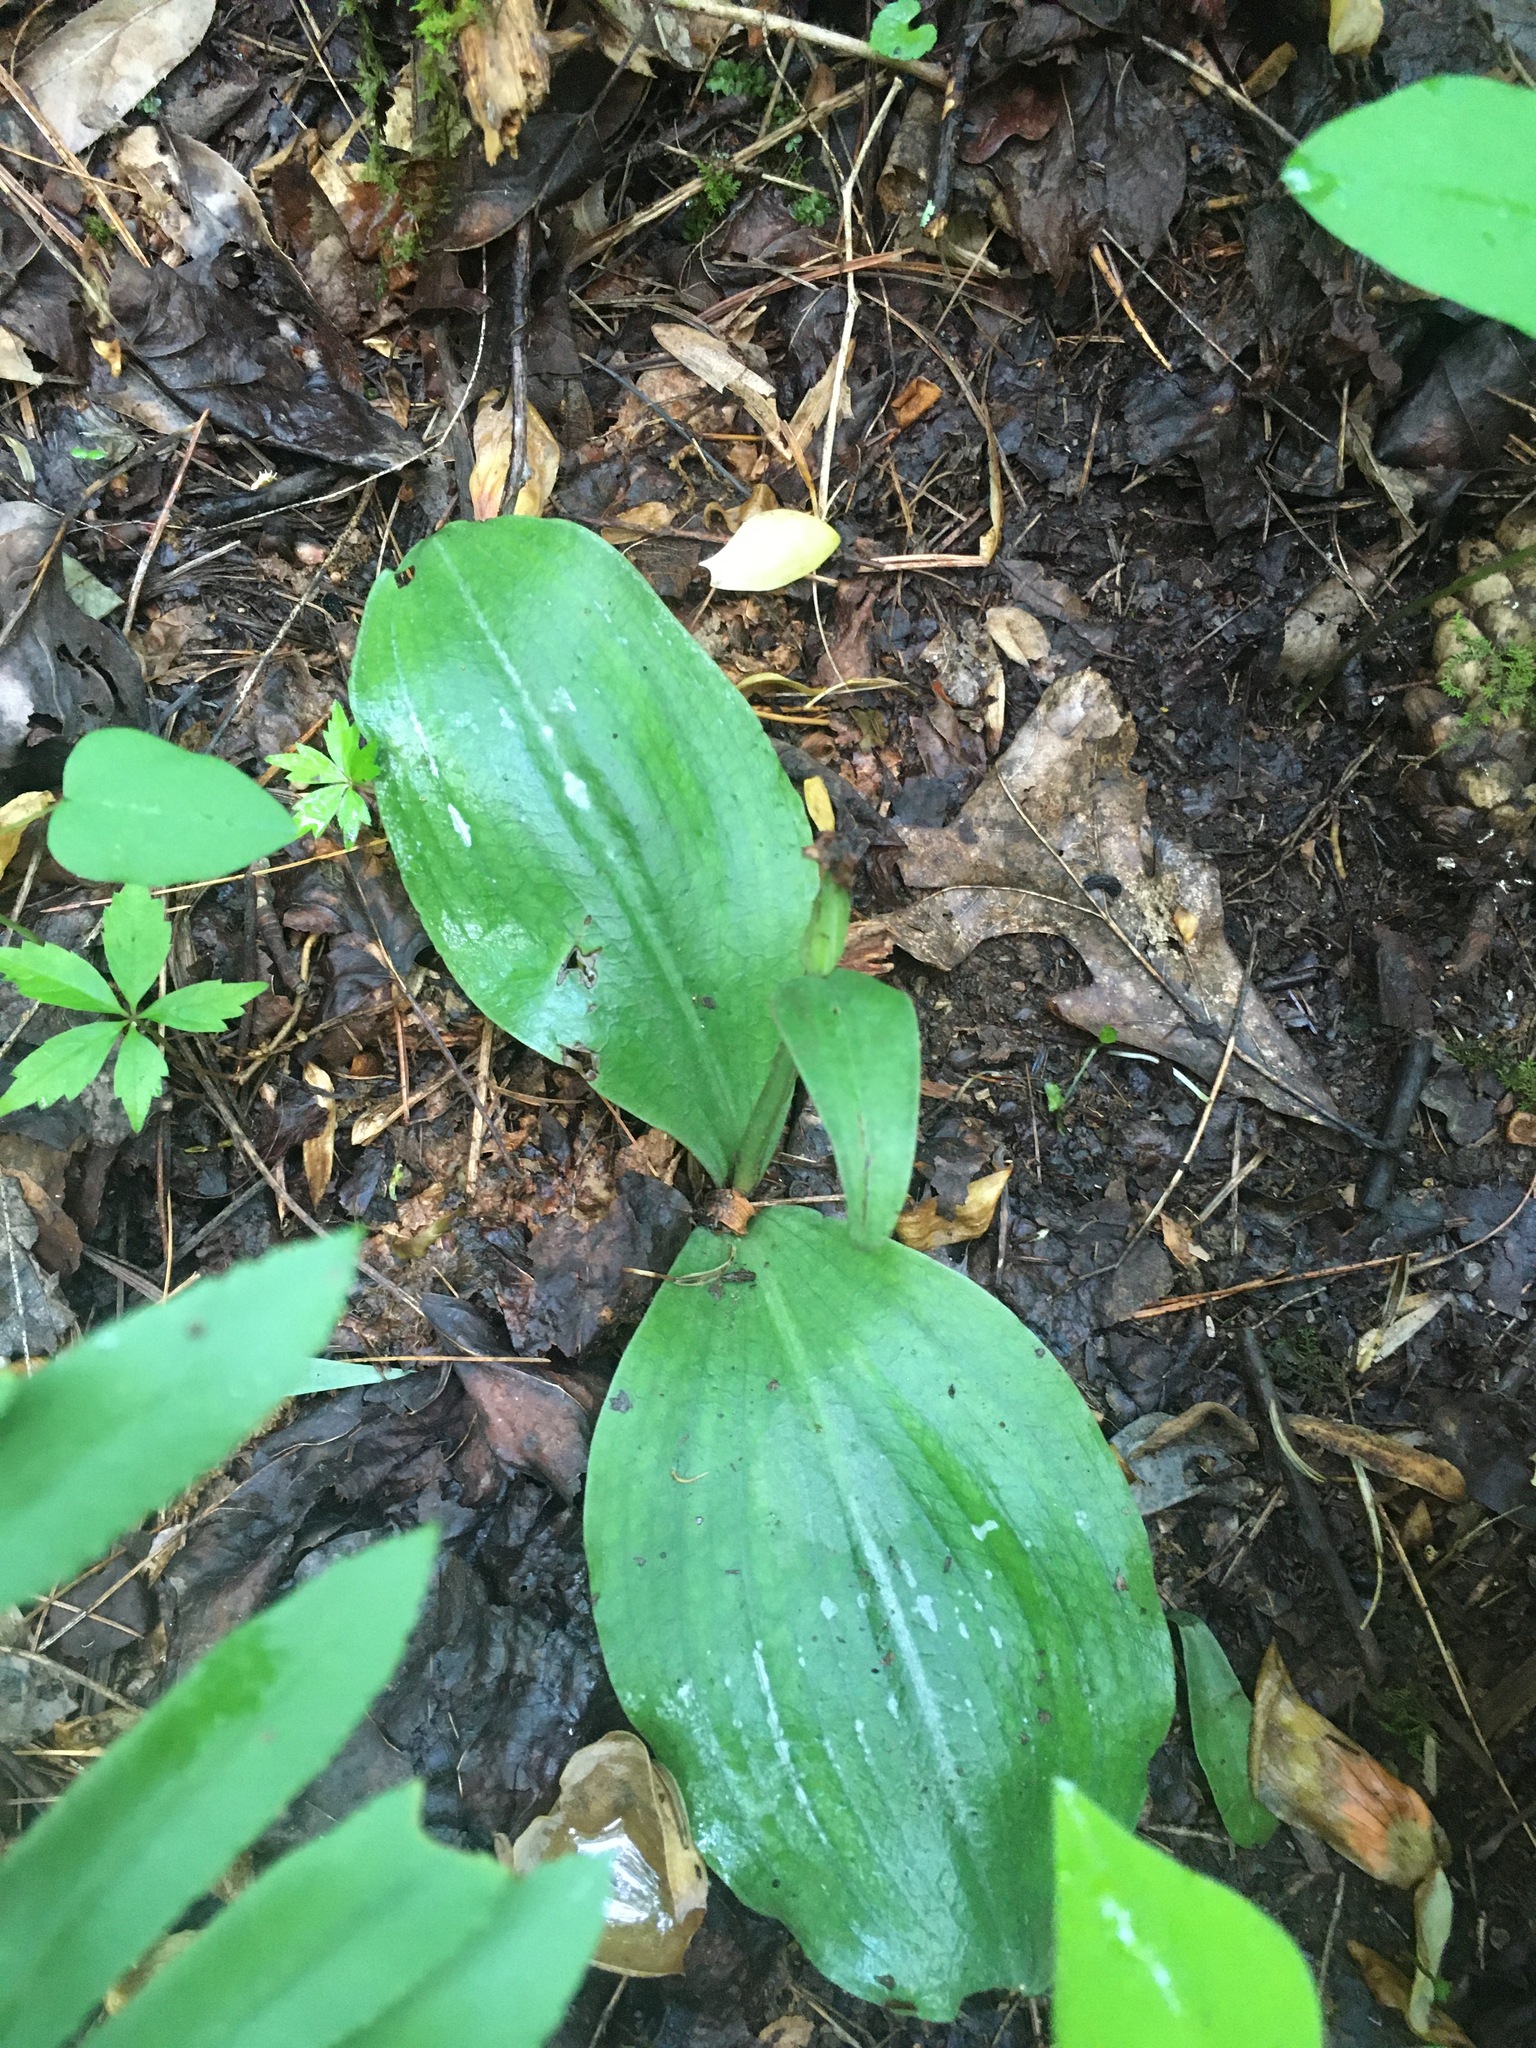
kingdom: Plantae
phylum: Tracheophyta
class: Liliopsida
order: Asparagales
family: Orchidaceae
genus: Galearis
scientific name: Galearis spectabilis
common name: Purple-hooded orchis
